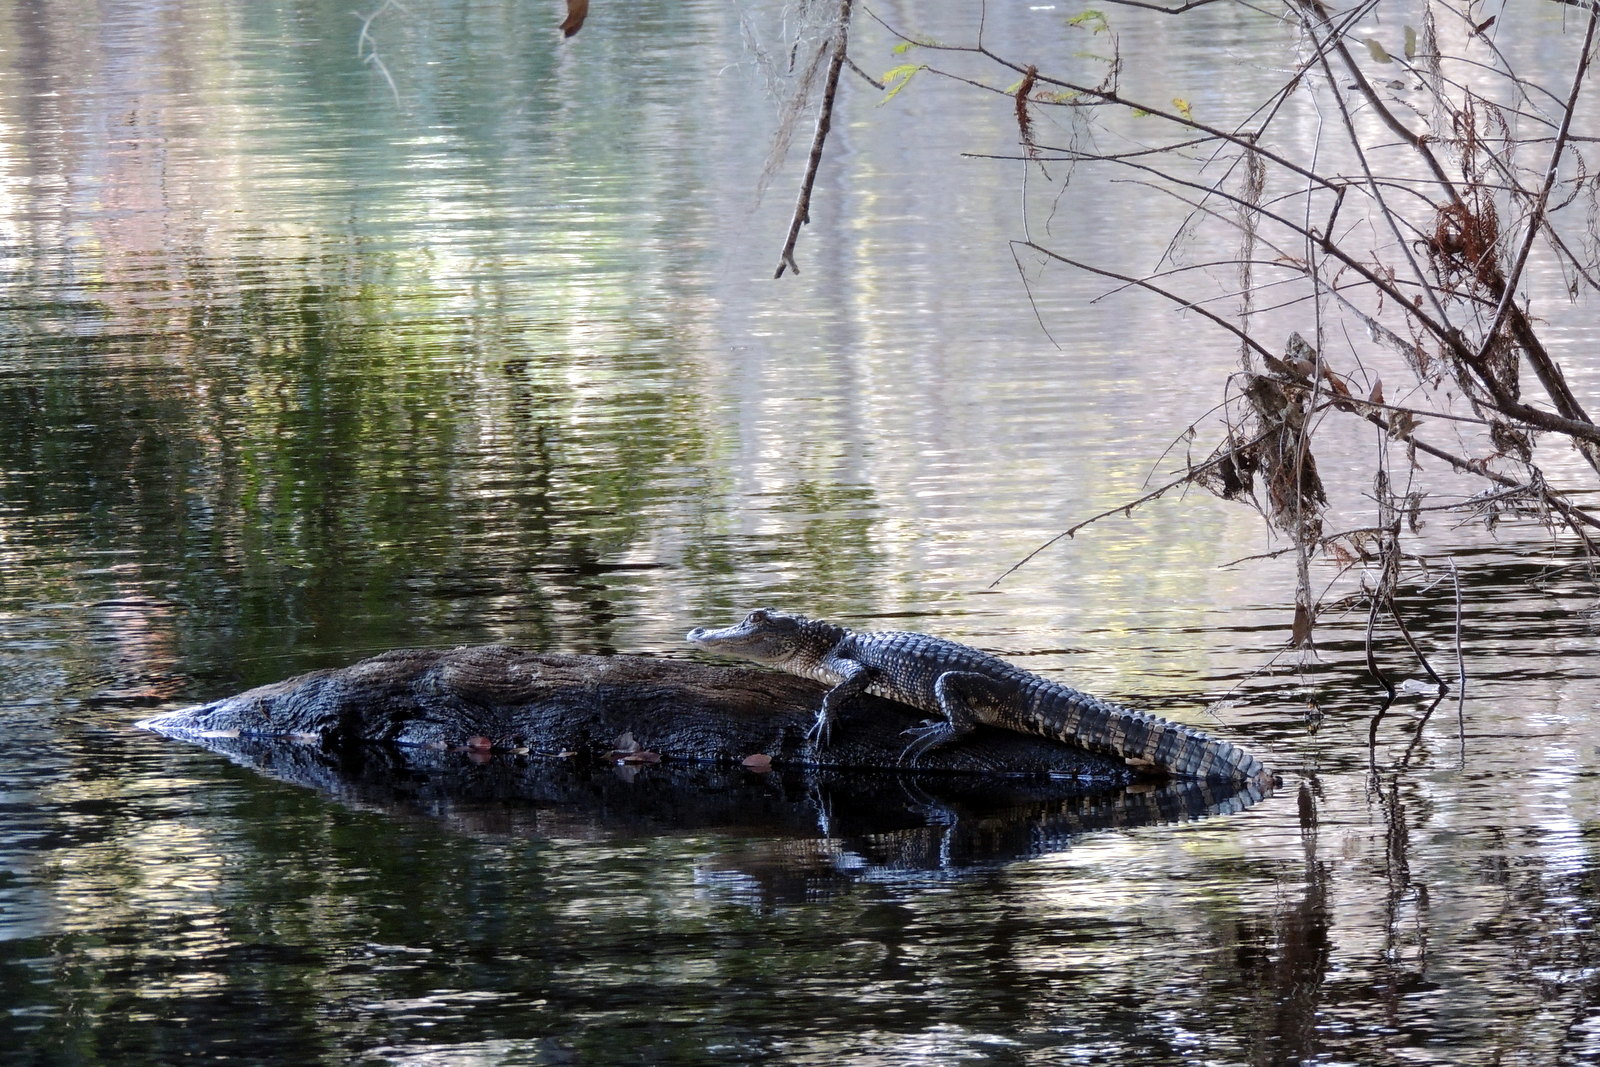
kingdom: Animalia
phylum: Chordata
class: Crocodylia
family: Alligatoridae
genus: Alligator
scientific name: Alligator mississippiensis
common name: American alligator
